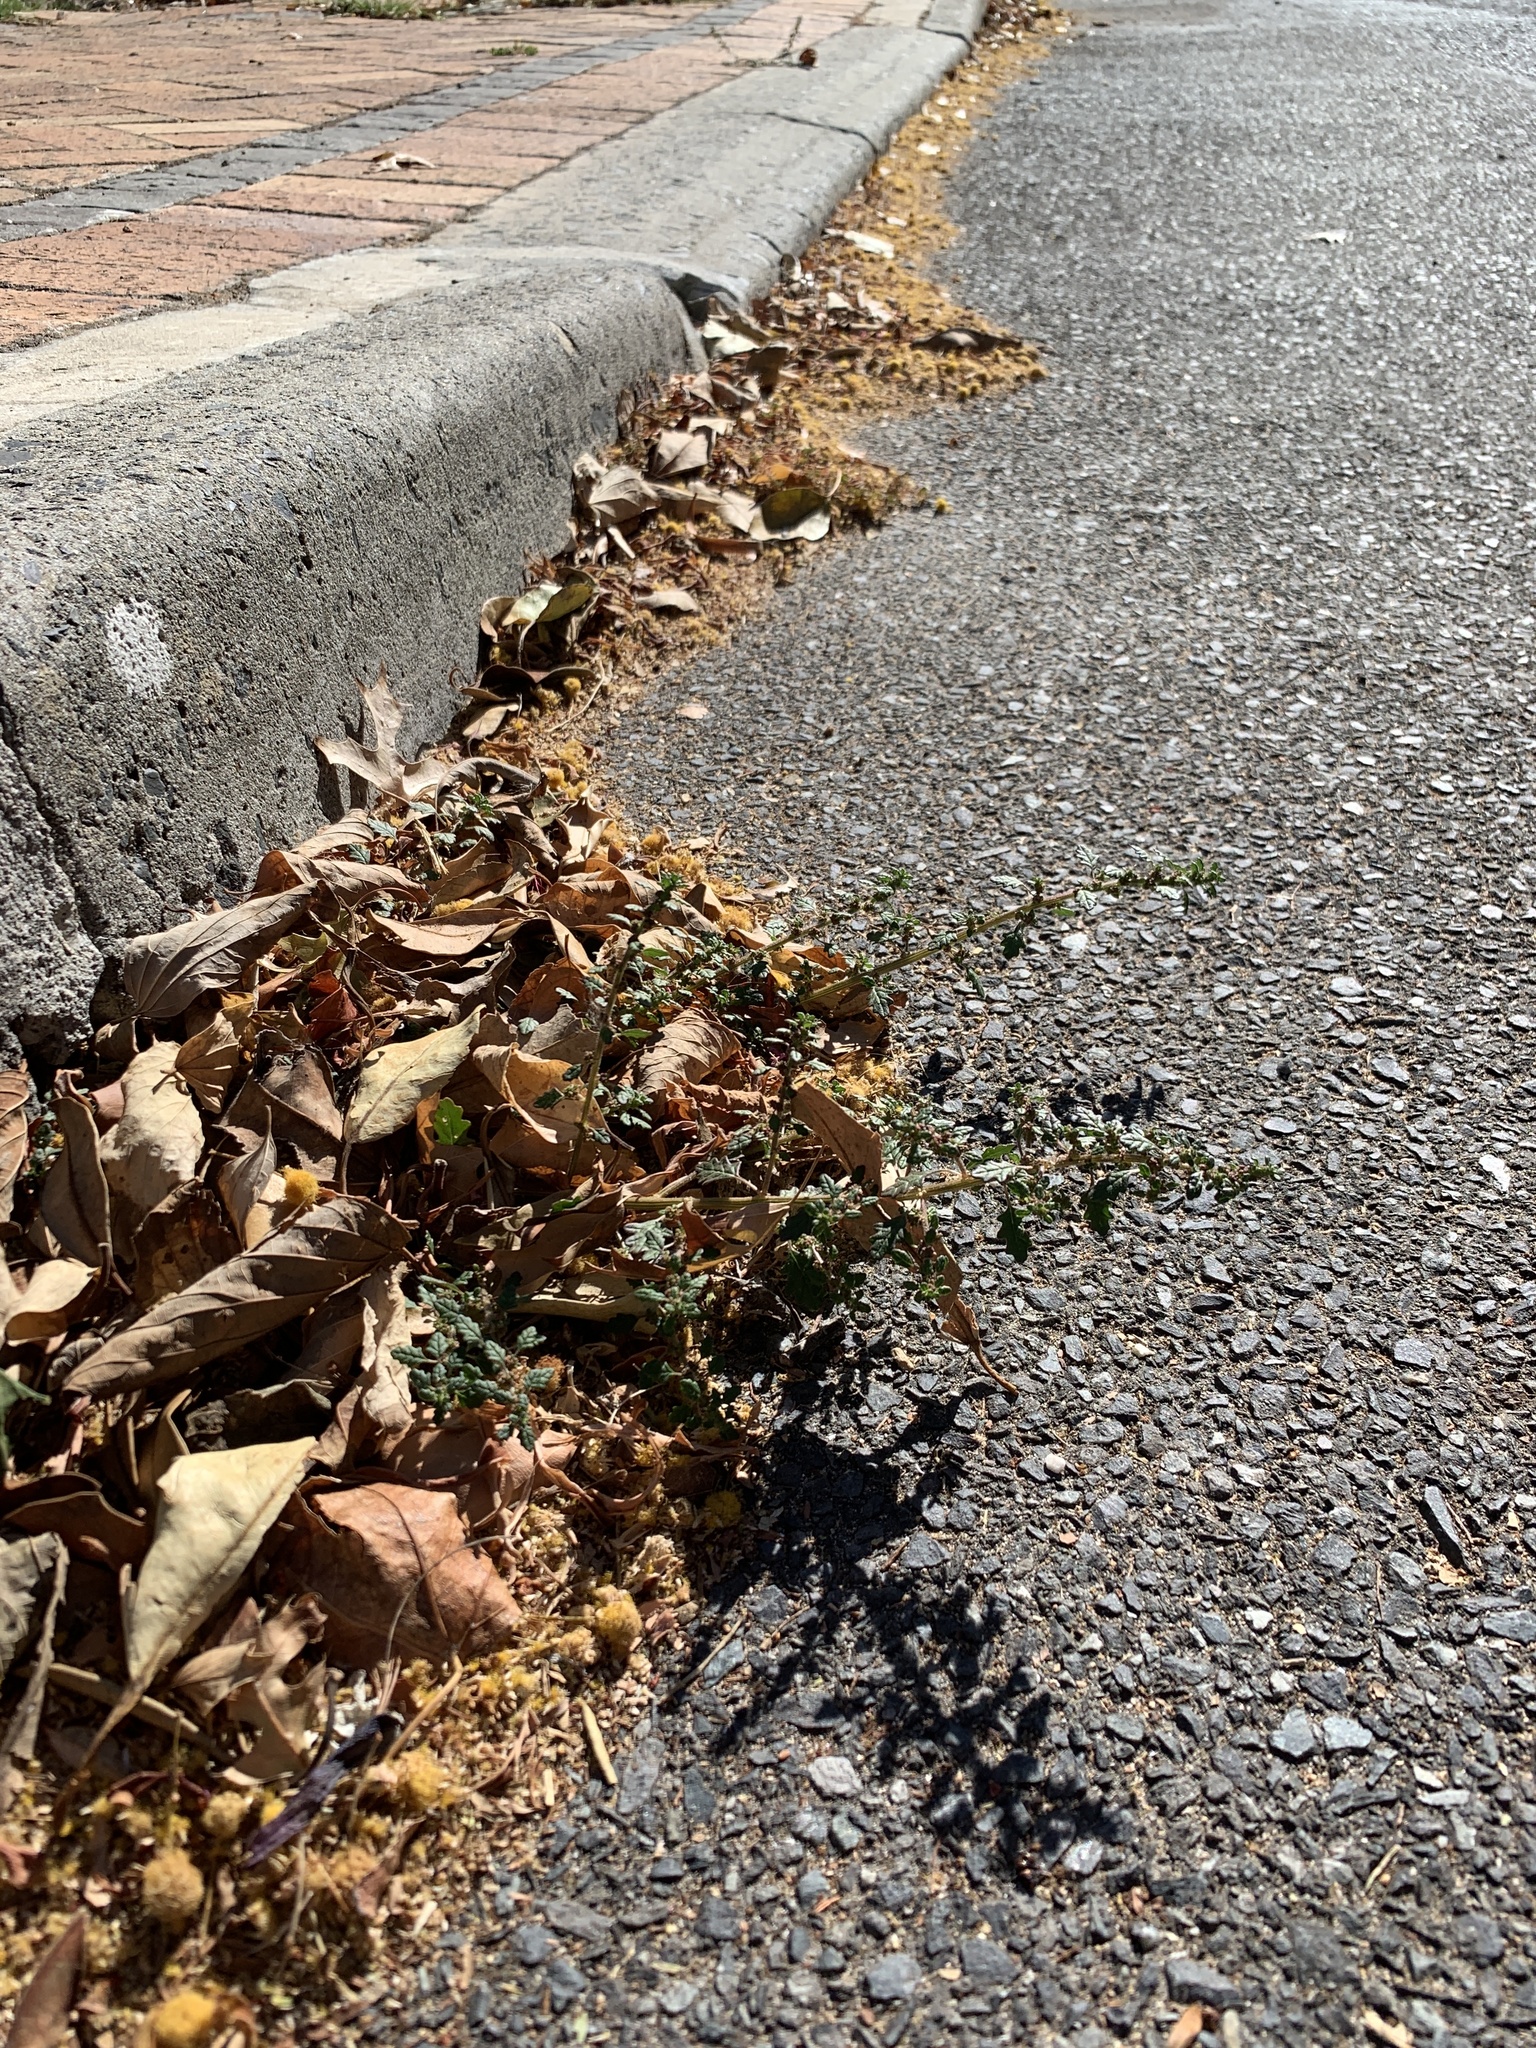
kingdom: Plantae
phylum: Tracheophyta
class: Magnoliopsida
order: Caryophyllales
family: Amaranthaceae
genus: Dysphania
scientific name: Dysphania pumilio
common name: Clammy goosefoot
